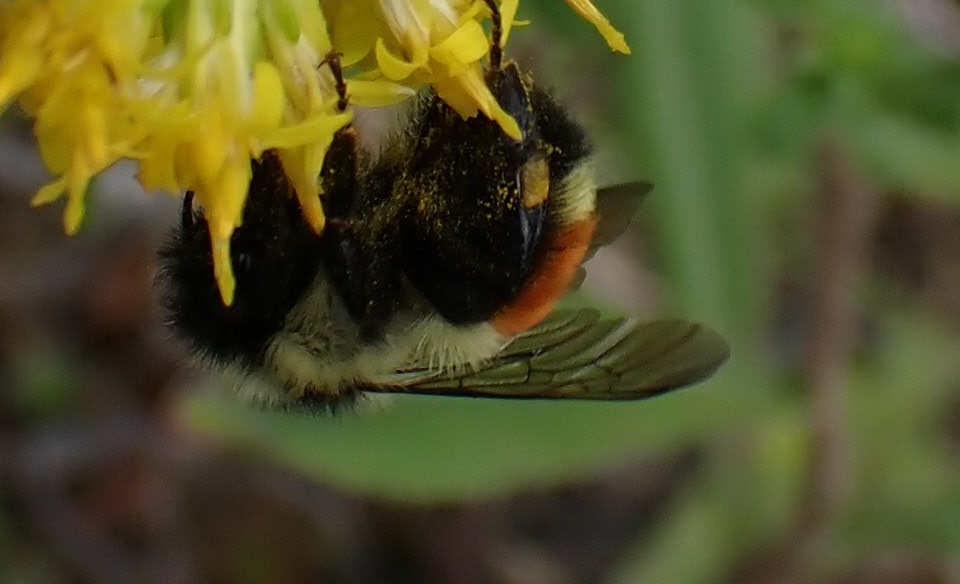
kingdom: Animalia
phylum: Arthropoda
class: Insecta
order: Hymenoptera
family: Apidae
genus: Bombus
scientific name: Bombus ternarius
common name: Tri-colored bumble bee
